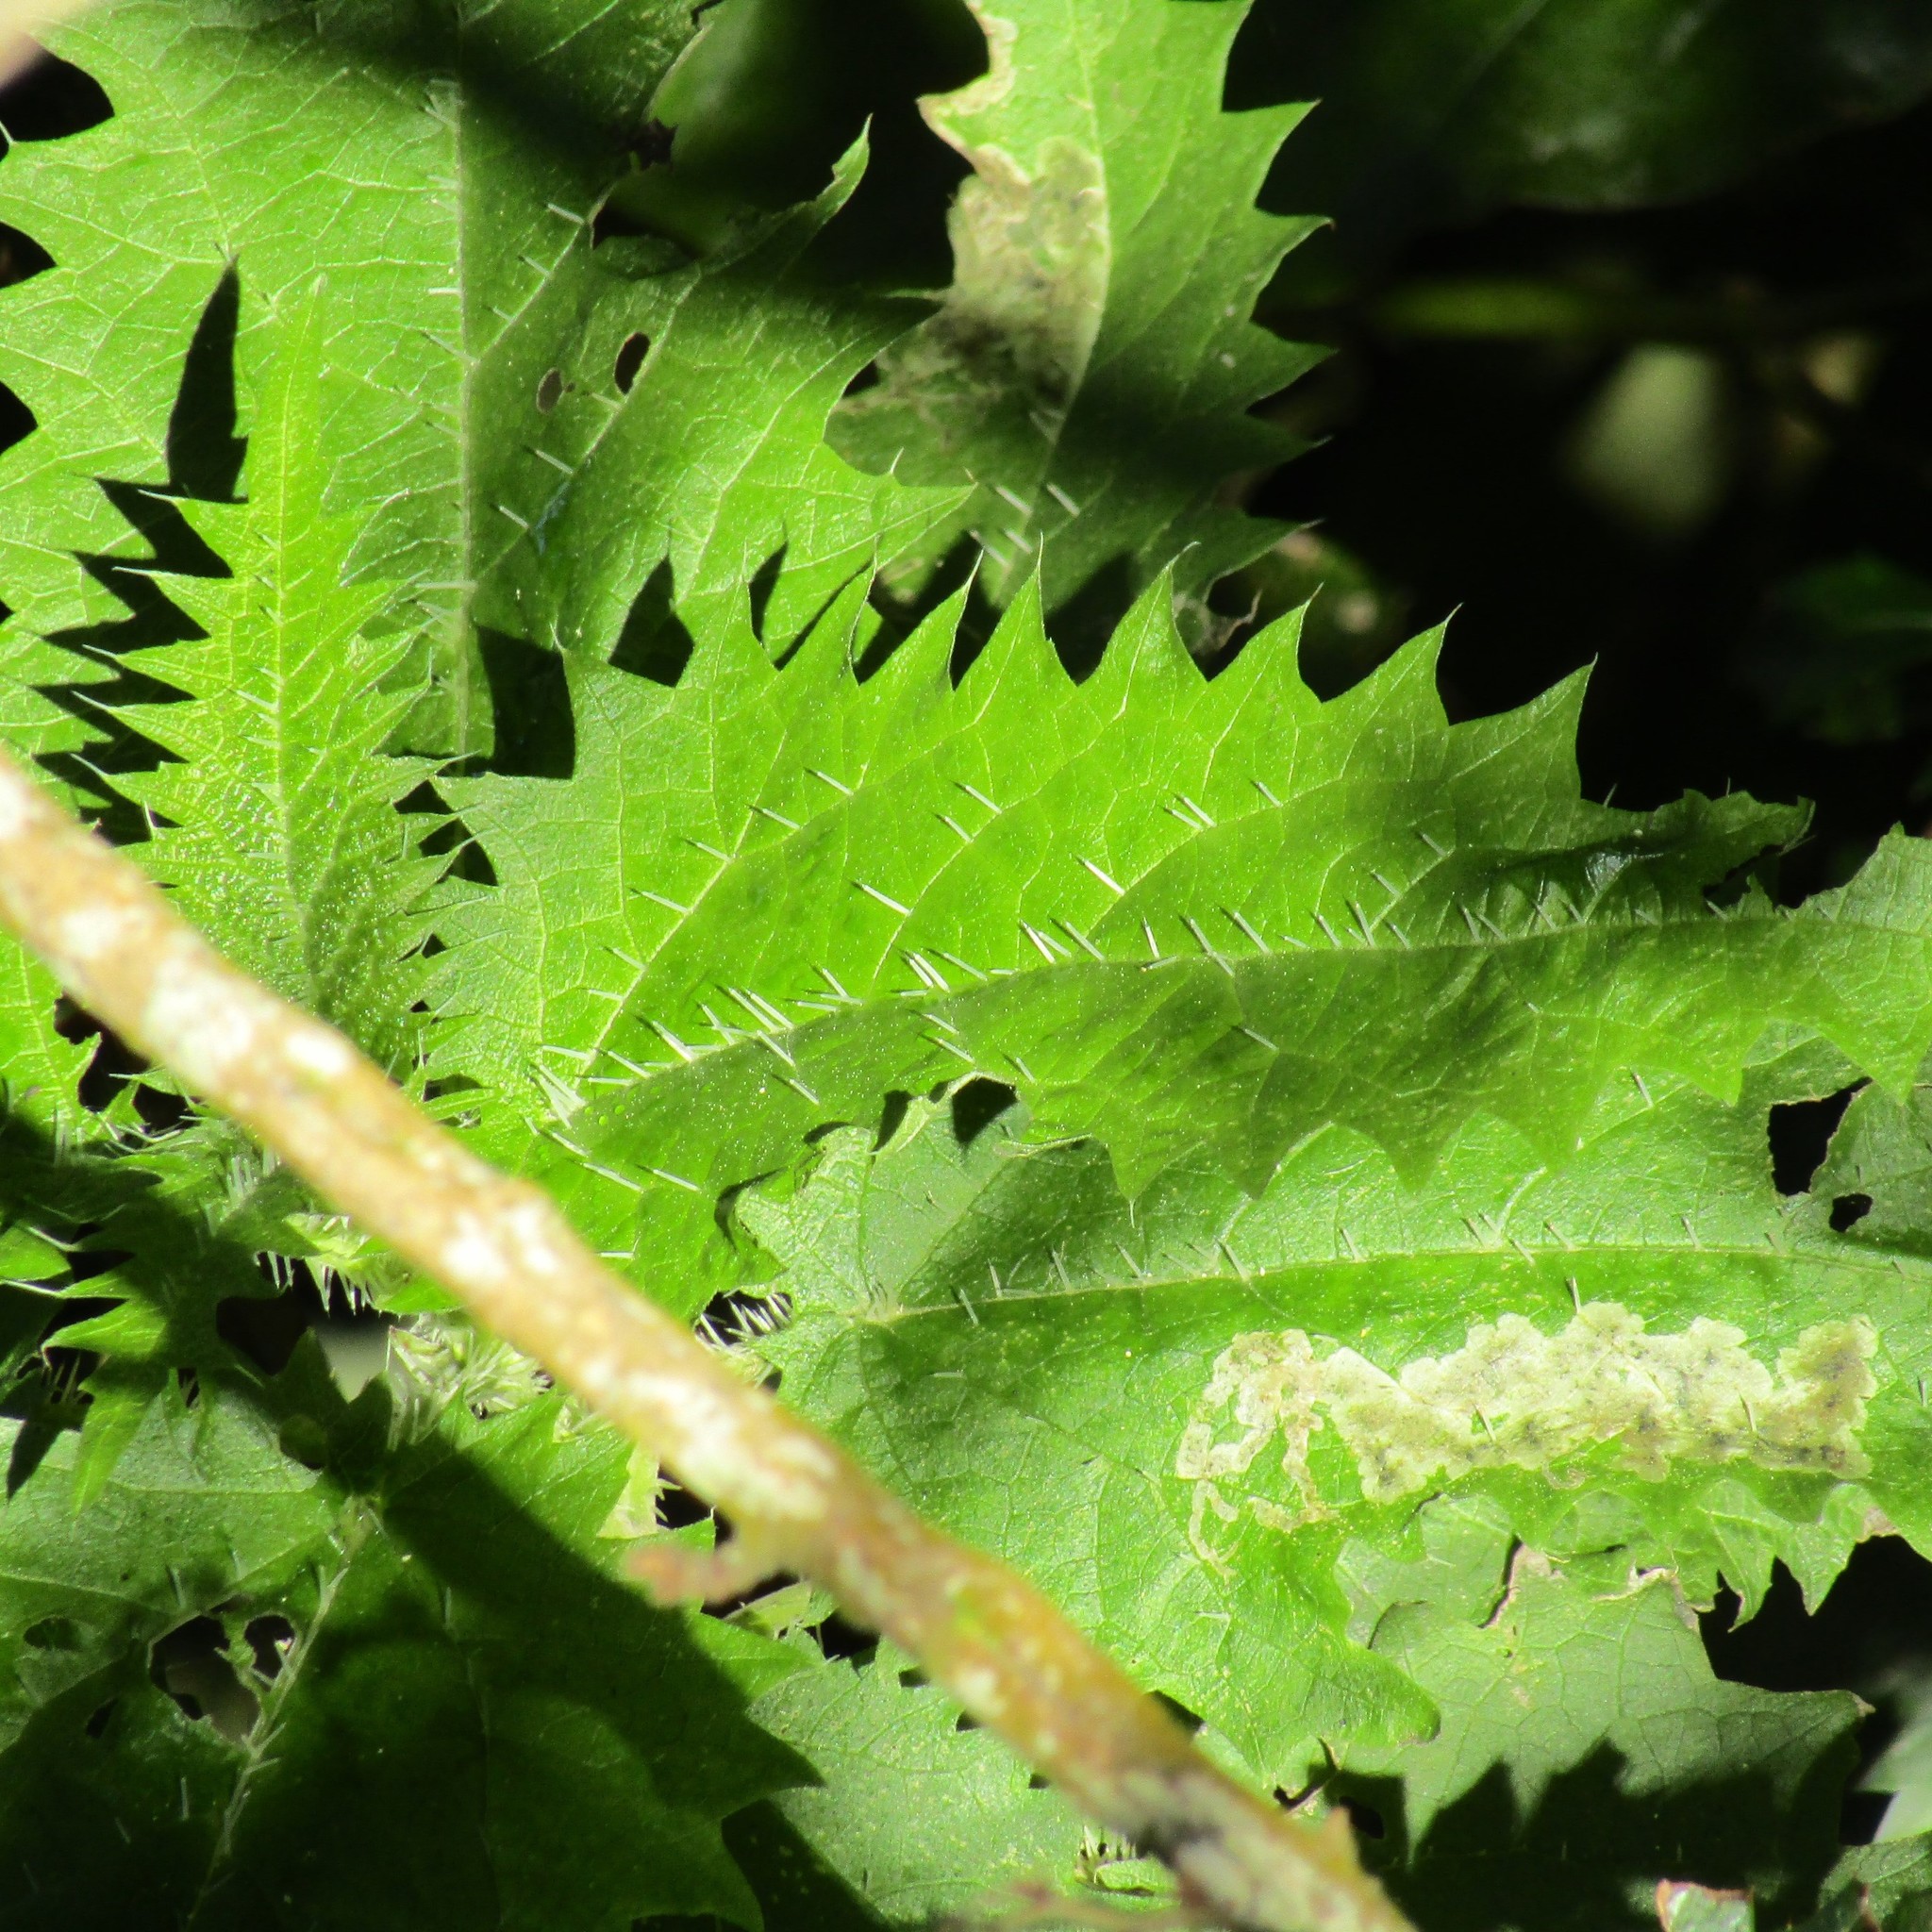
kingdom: Plantae
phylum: Tracheophyta
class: Magnoliopsida
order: Rosales
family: Urticaceae
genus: Urtica
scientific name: Urtica ferox
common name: Tree nettle
